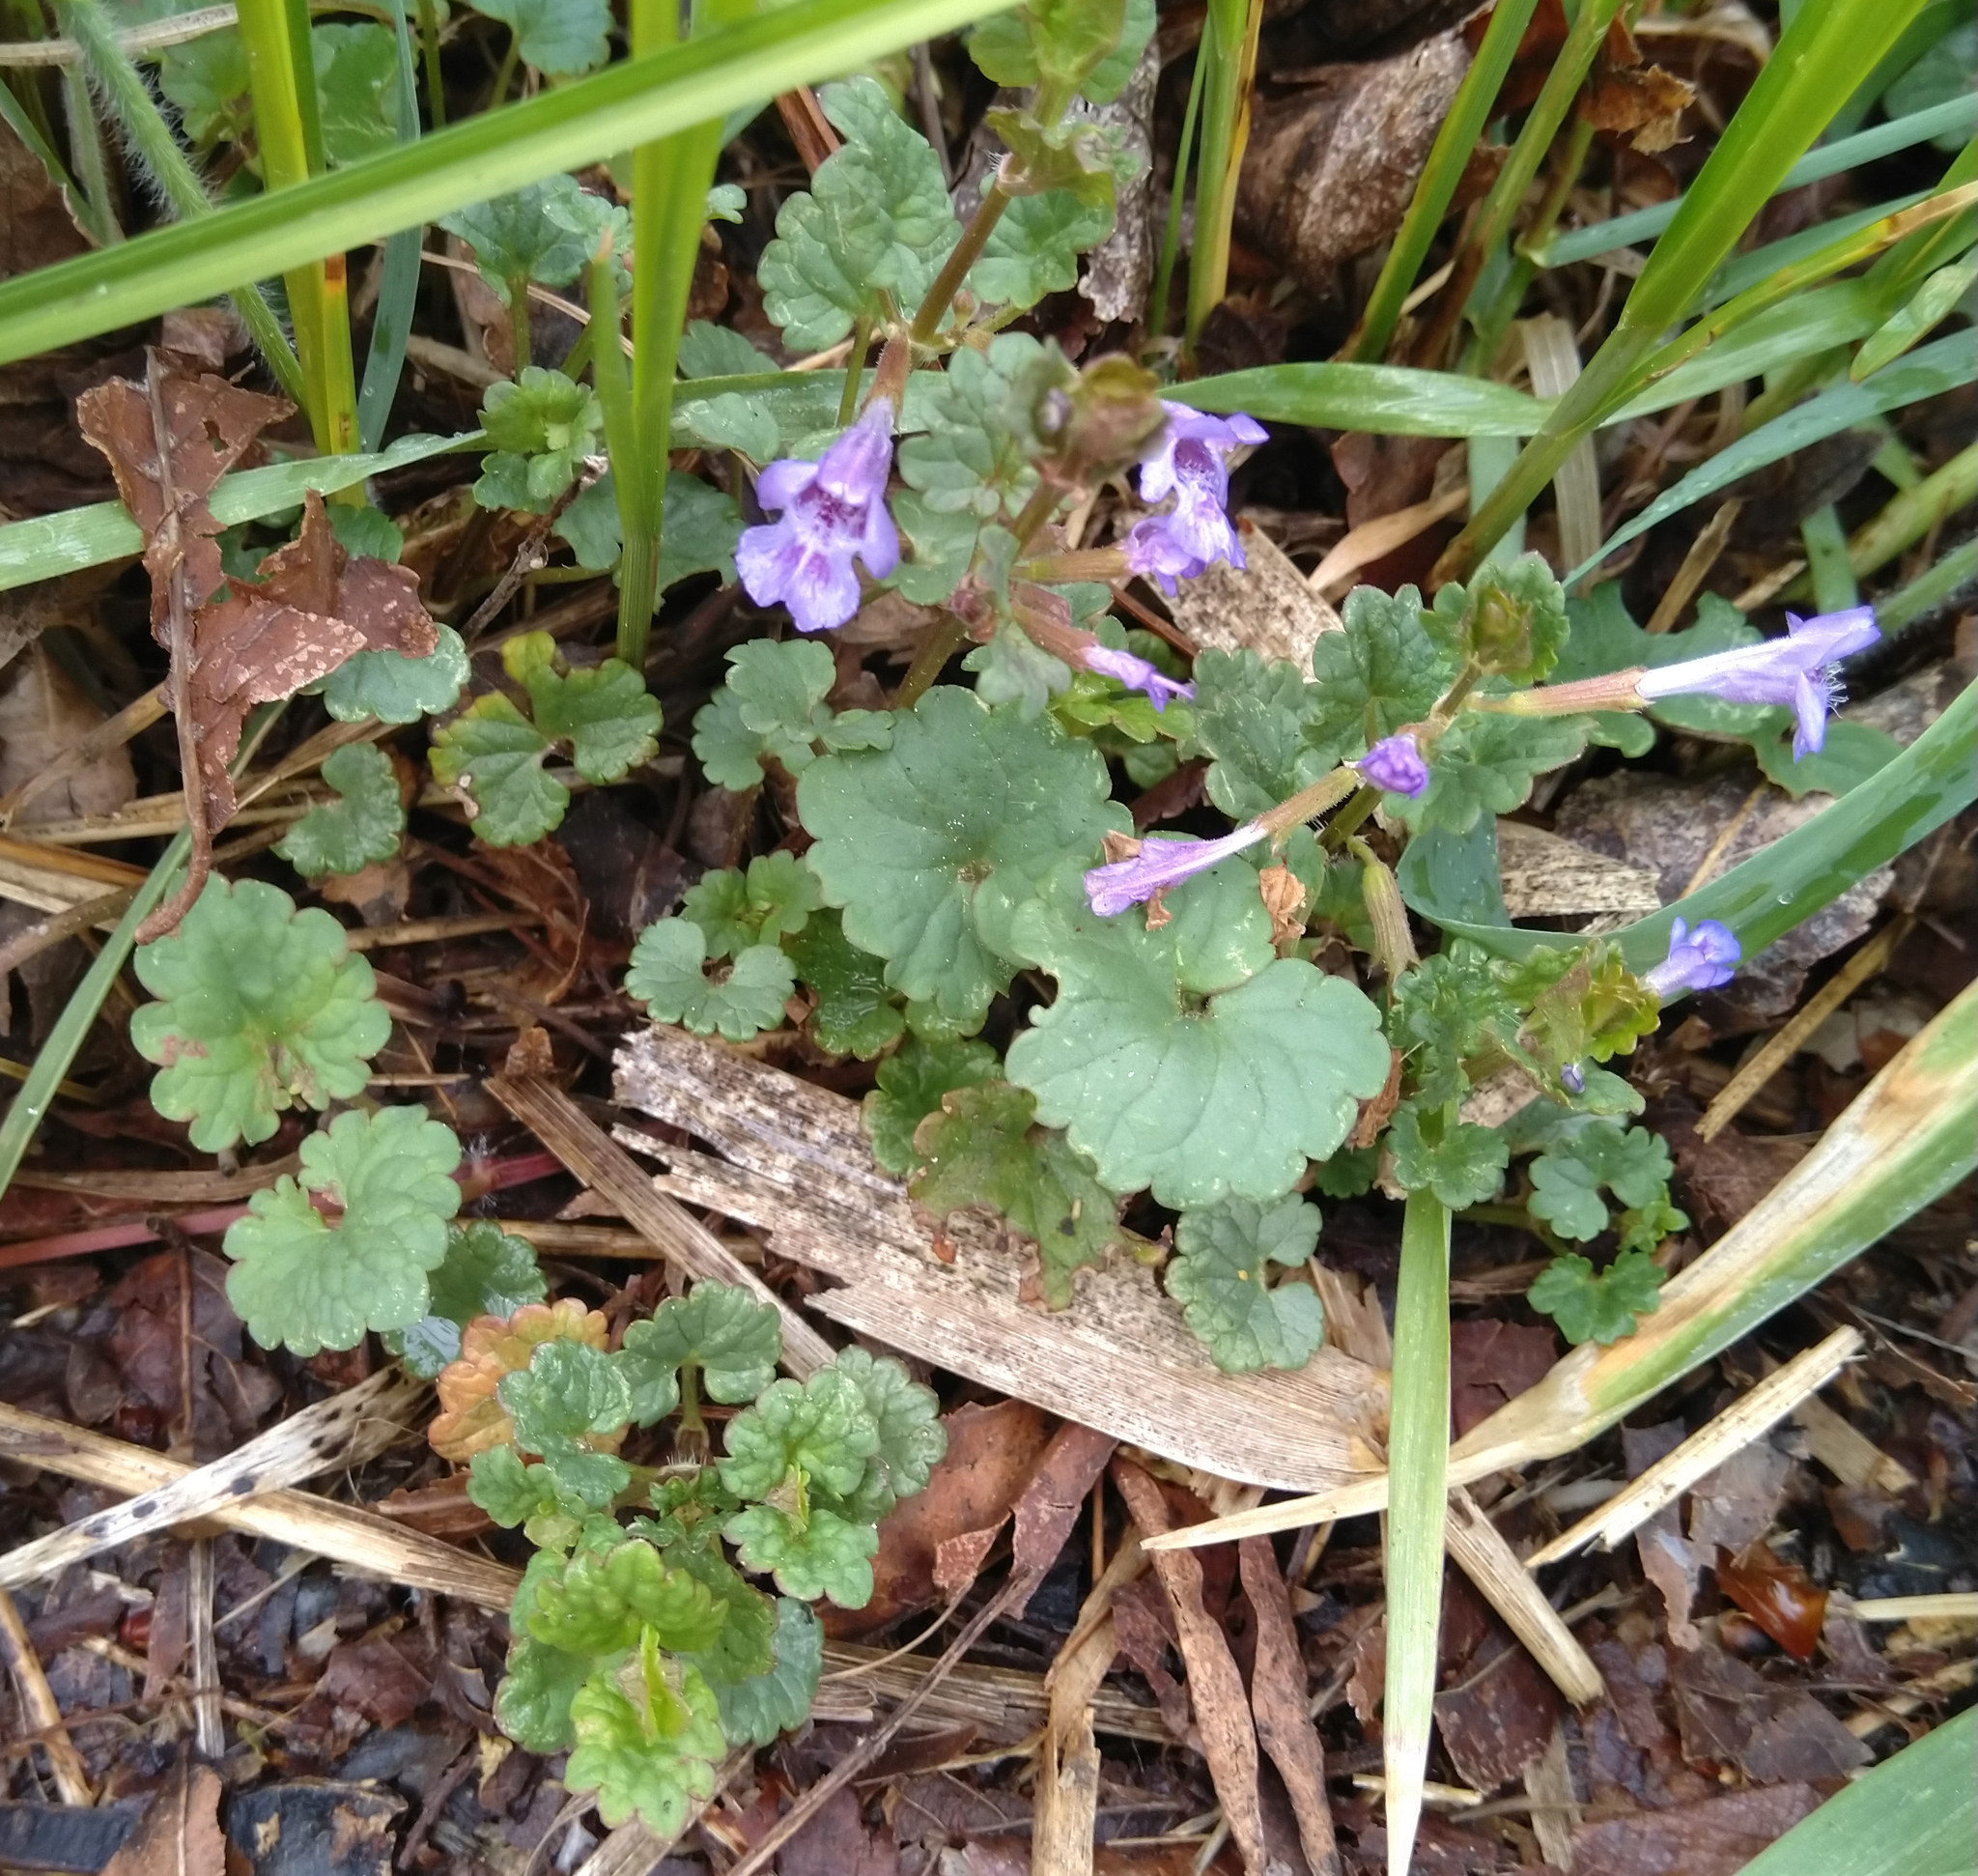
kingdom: Plantae
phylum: Tracheophyta
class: Magnoliopsida
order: Lamiales
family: Lamiaceae
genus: Glechoma
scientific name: Glechoma hederacea
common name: Ground ivy
